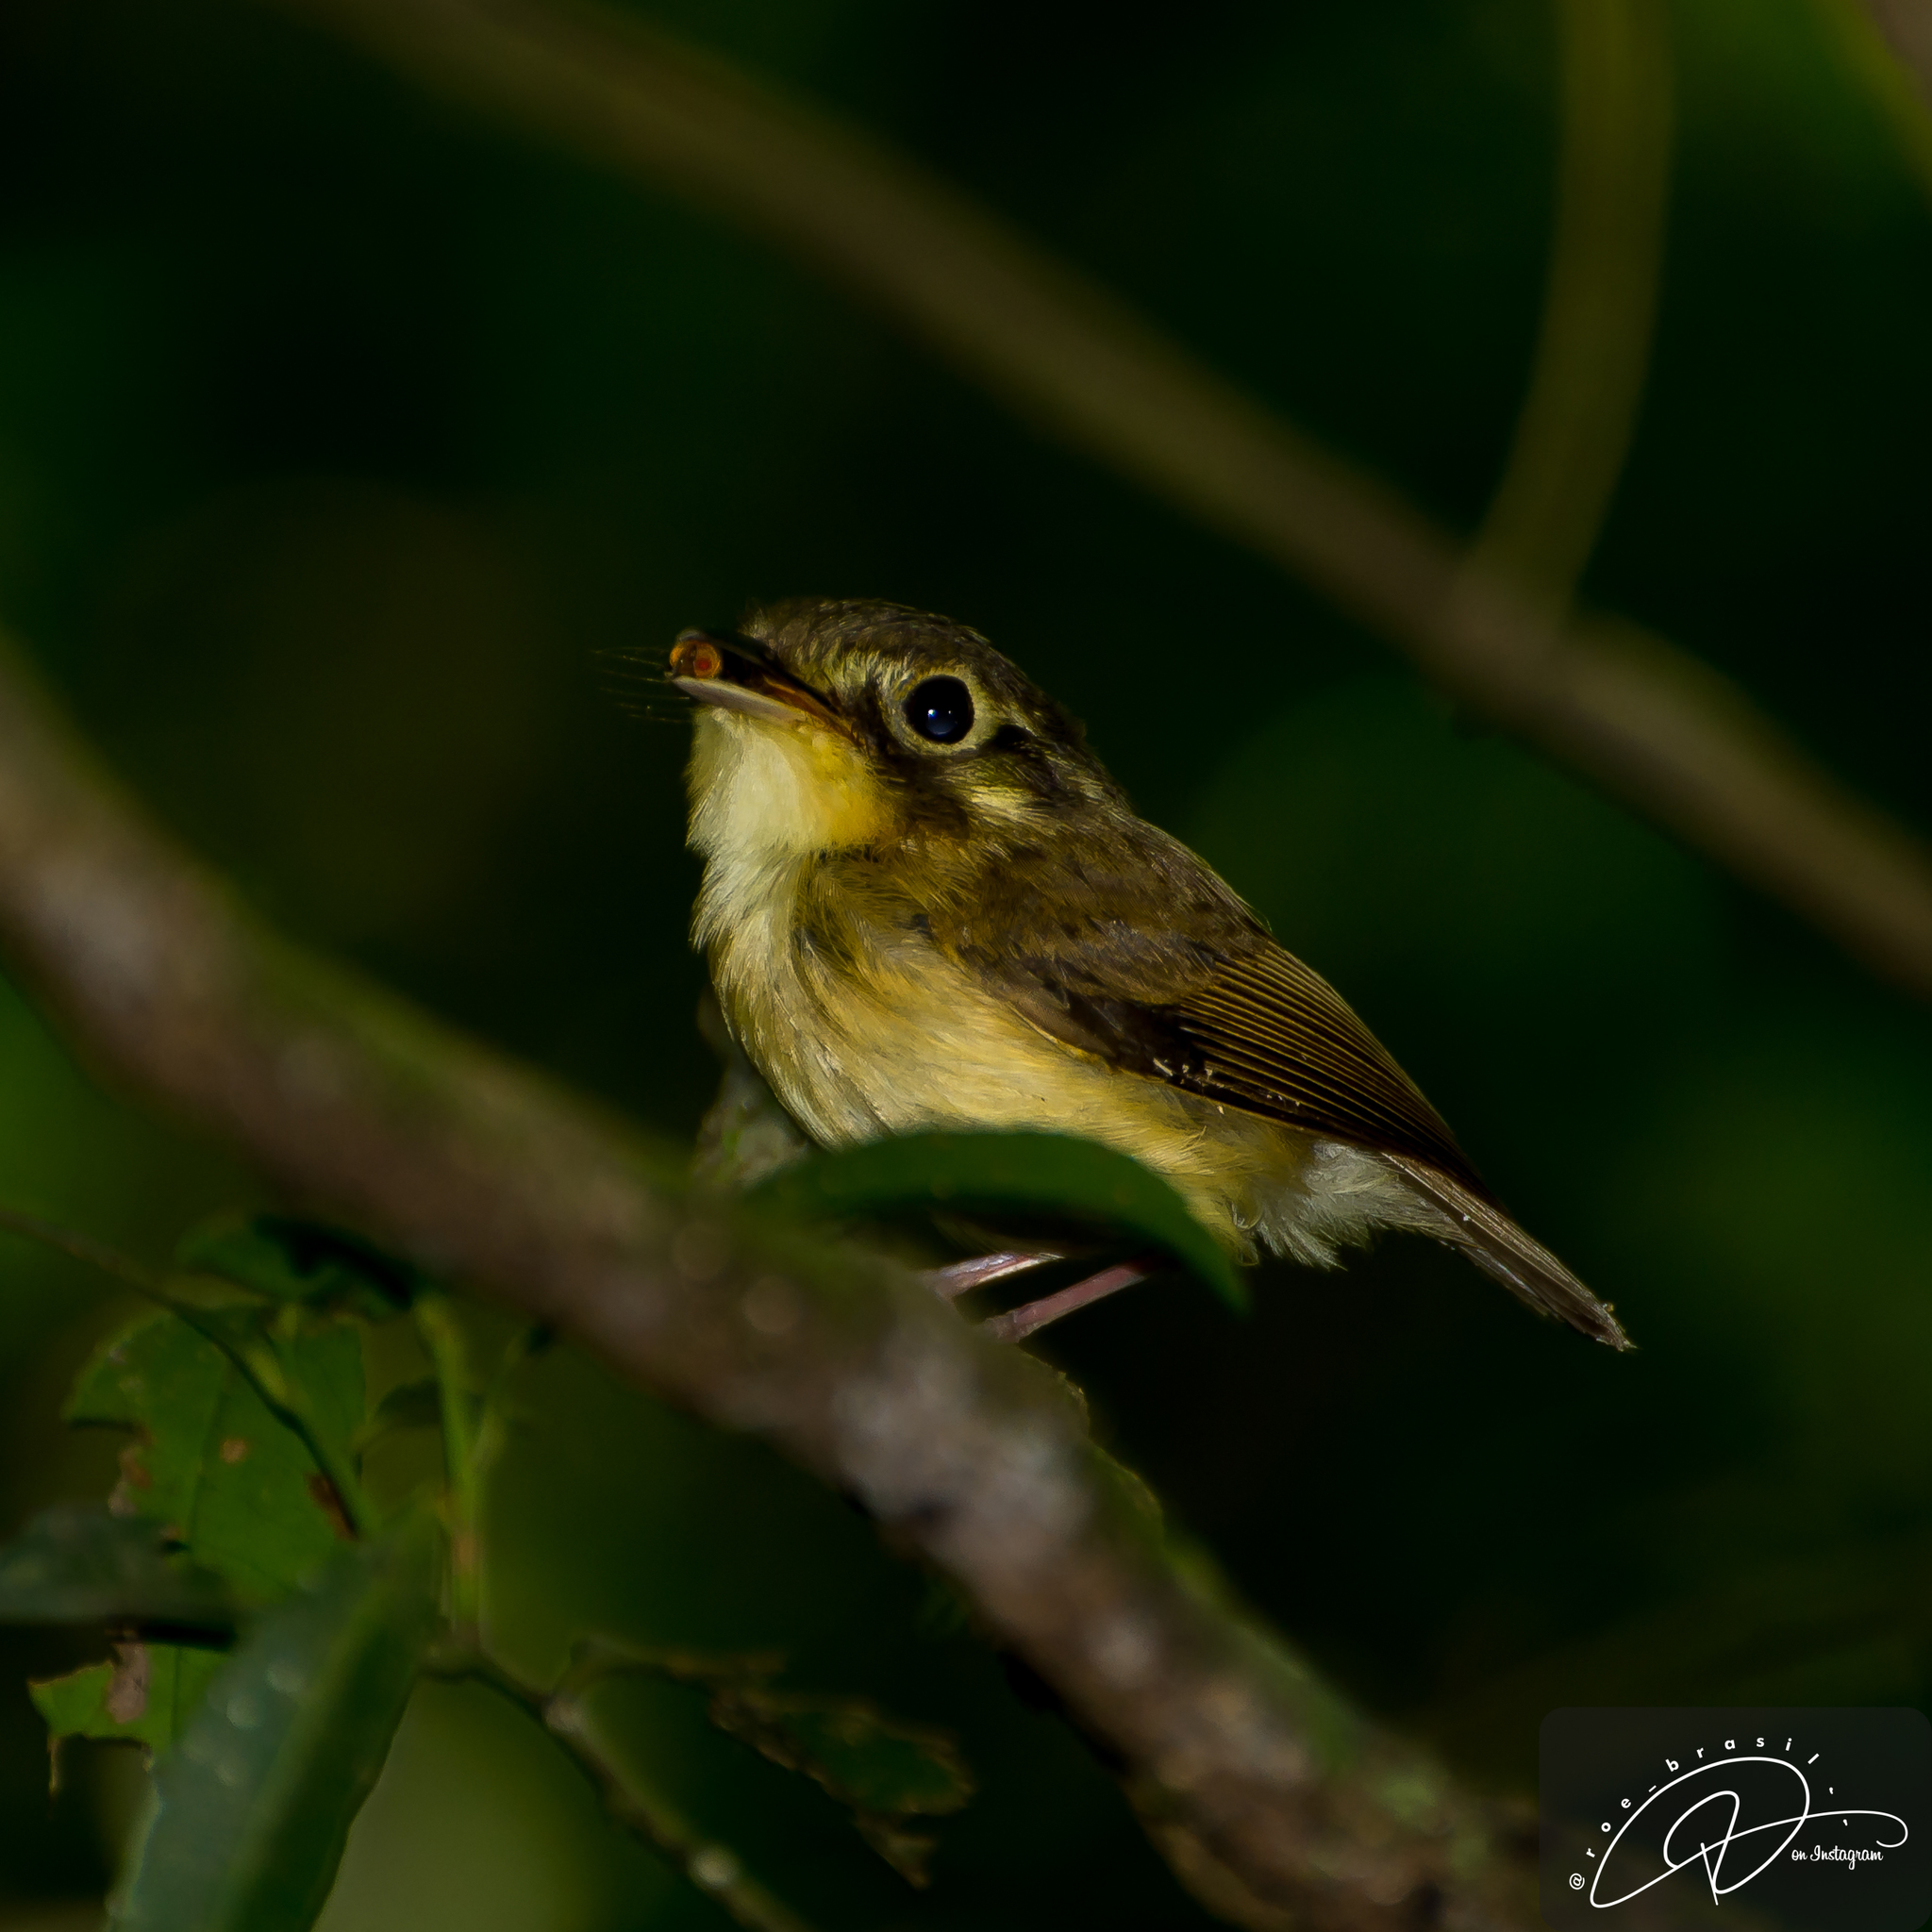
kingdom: Animalia
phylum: Chordata
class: Aves
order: Passeriformes
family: Tyrannidae
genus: Platyrinchus
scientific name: Platyrinchus mystaceus
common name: White-throated spadebill
